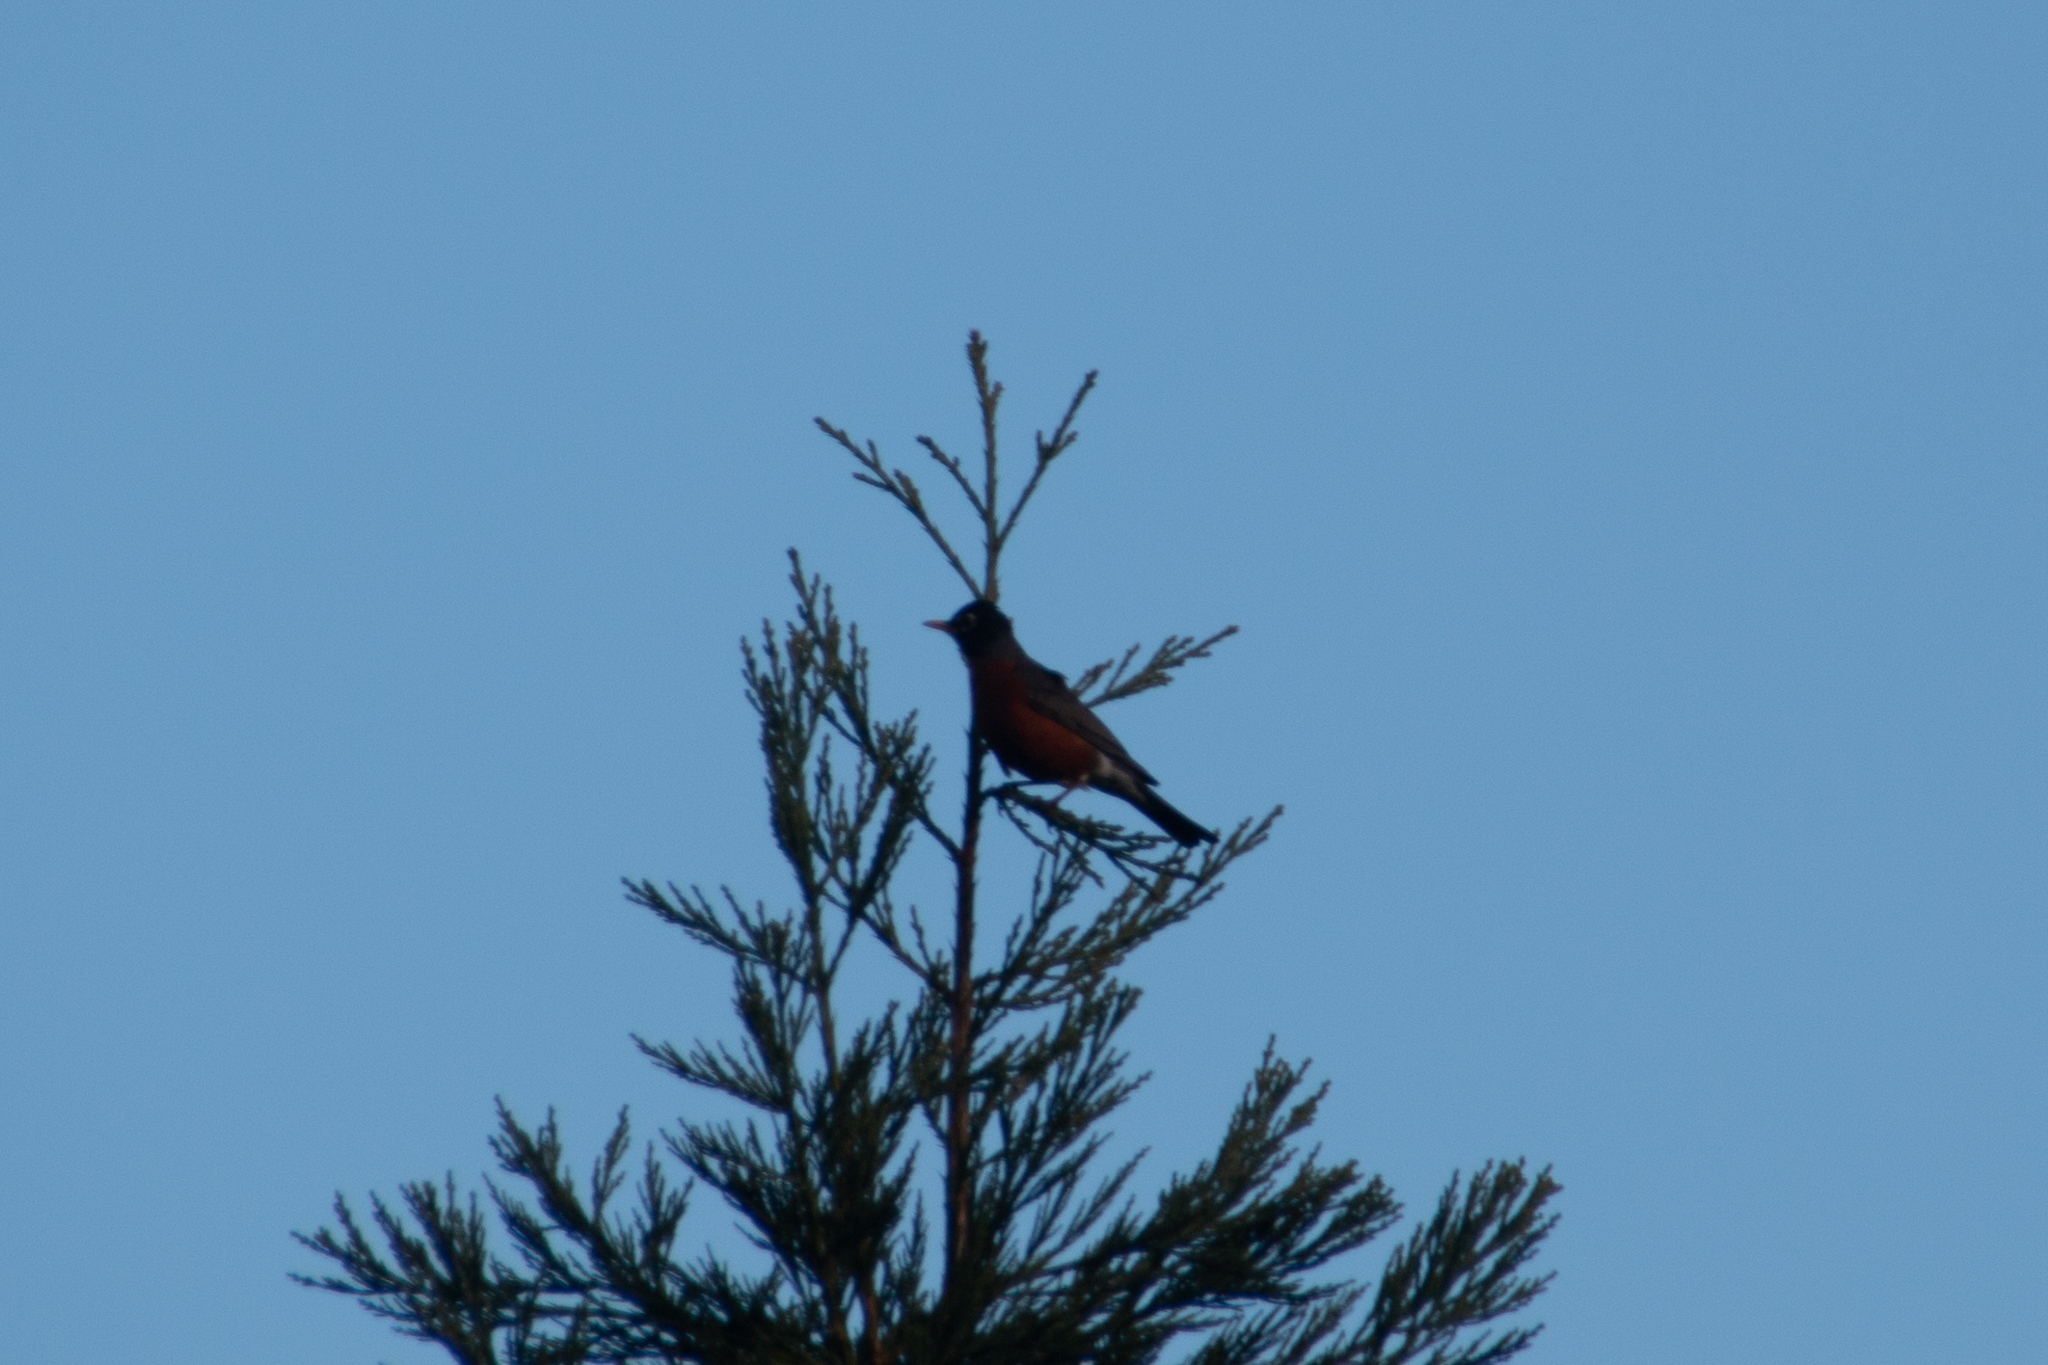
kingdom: Animalia
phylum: Chordata
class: Aves
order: Passeriformes
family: Turdidae
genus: Turdus
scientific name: Turdus migratorius
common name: American robin
